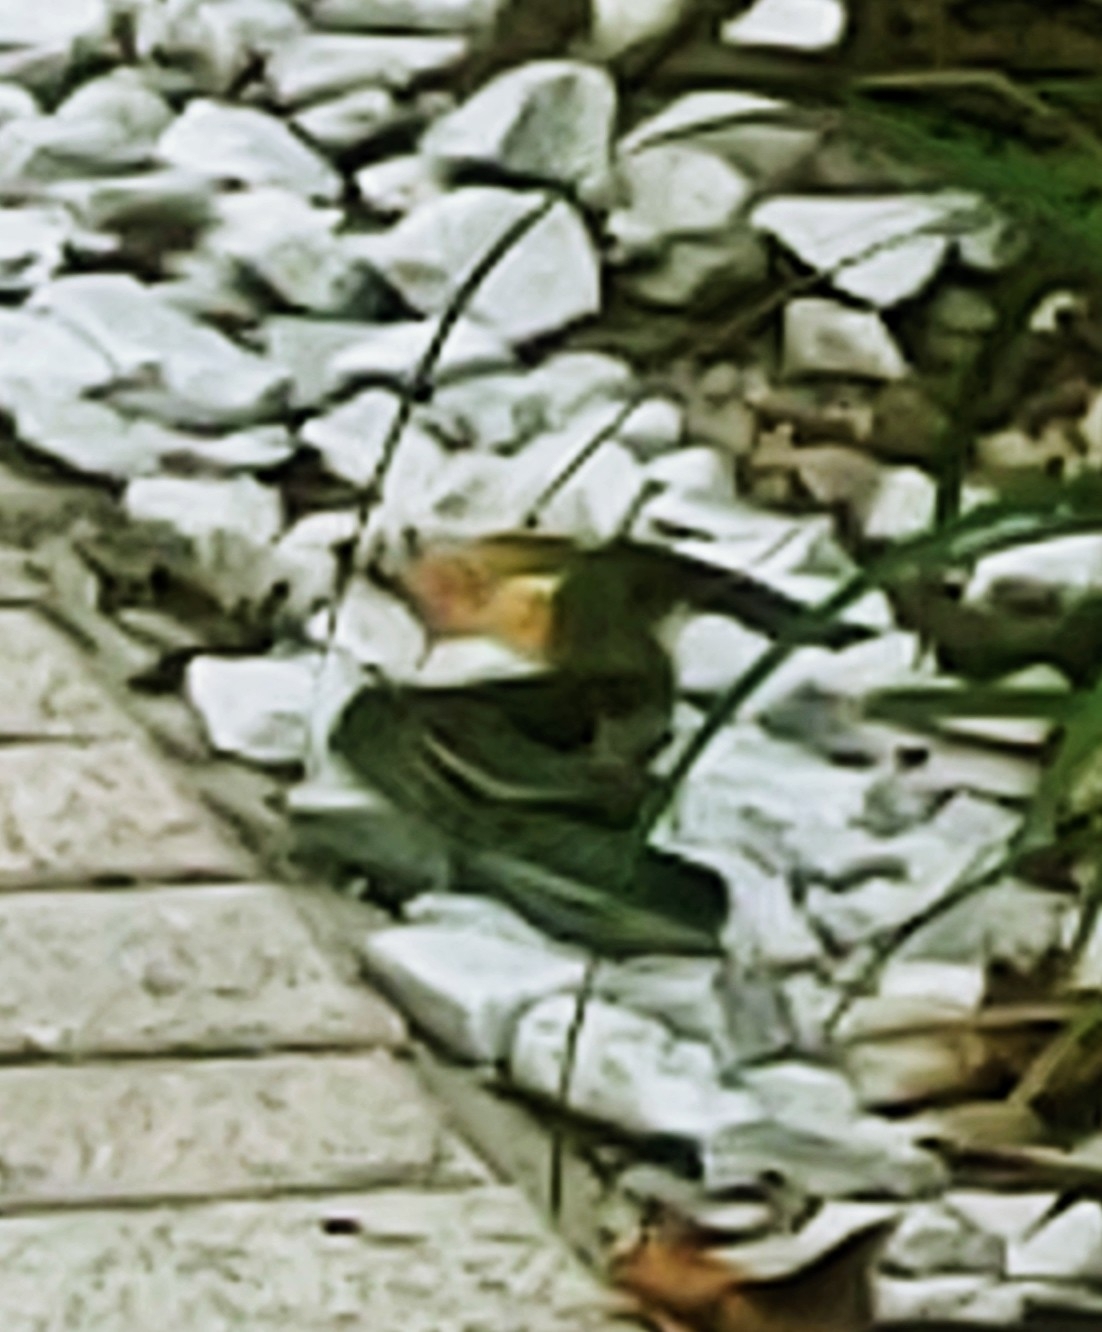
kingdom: Animalia
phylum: Chordata
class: Squamata
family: Colubridae
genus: Coluber
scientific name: Coluber constrictor
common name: Eastern racer
